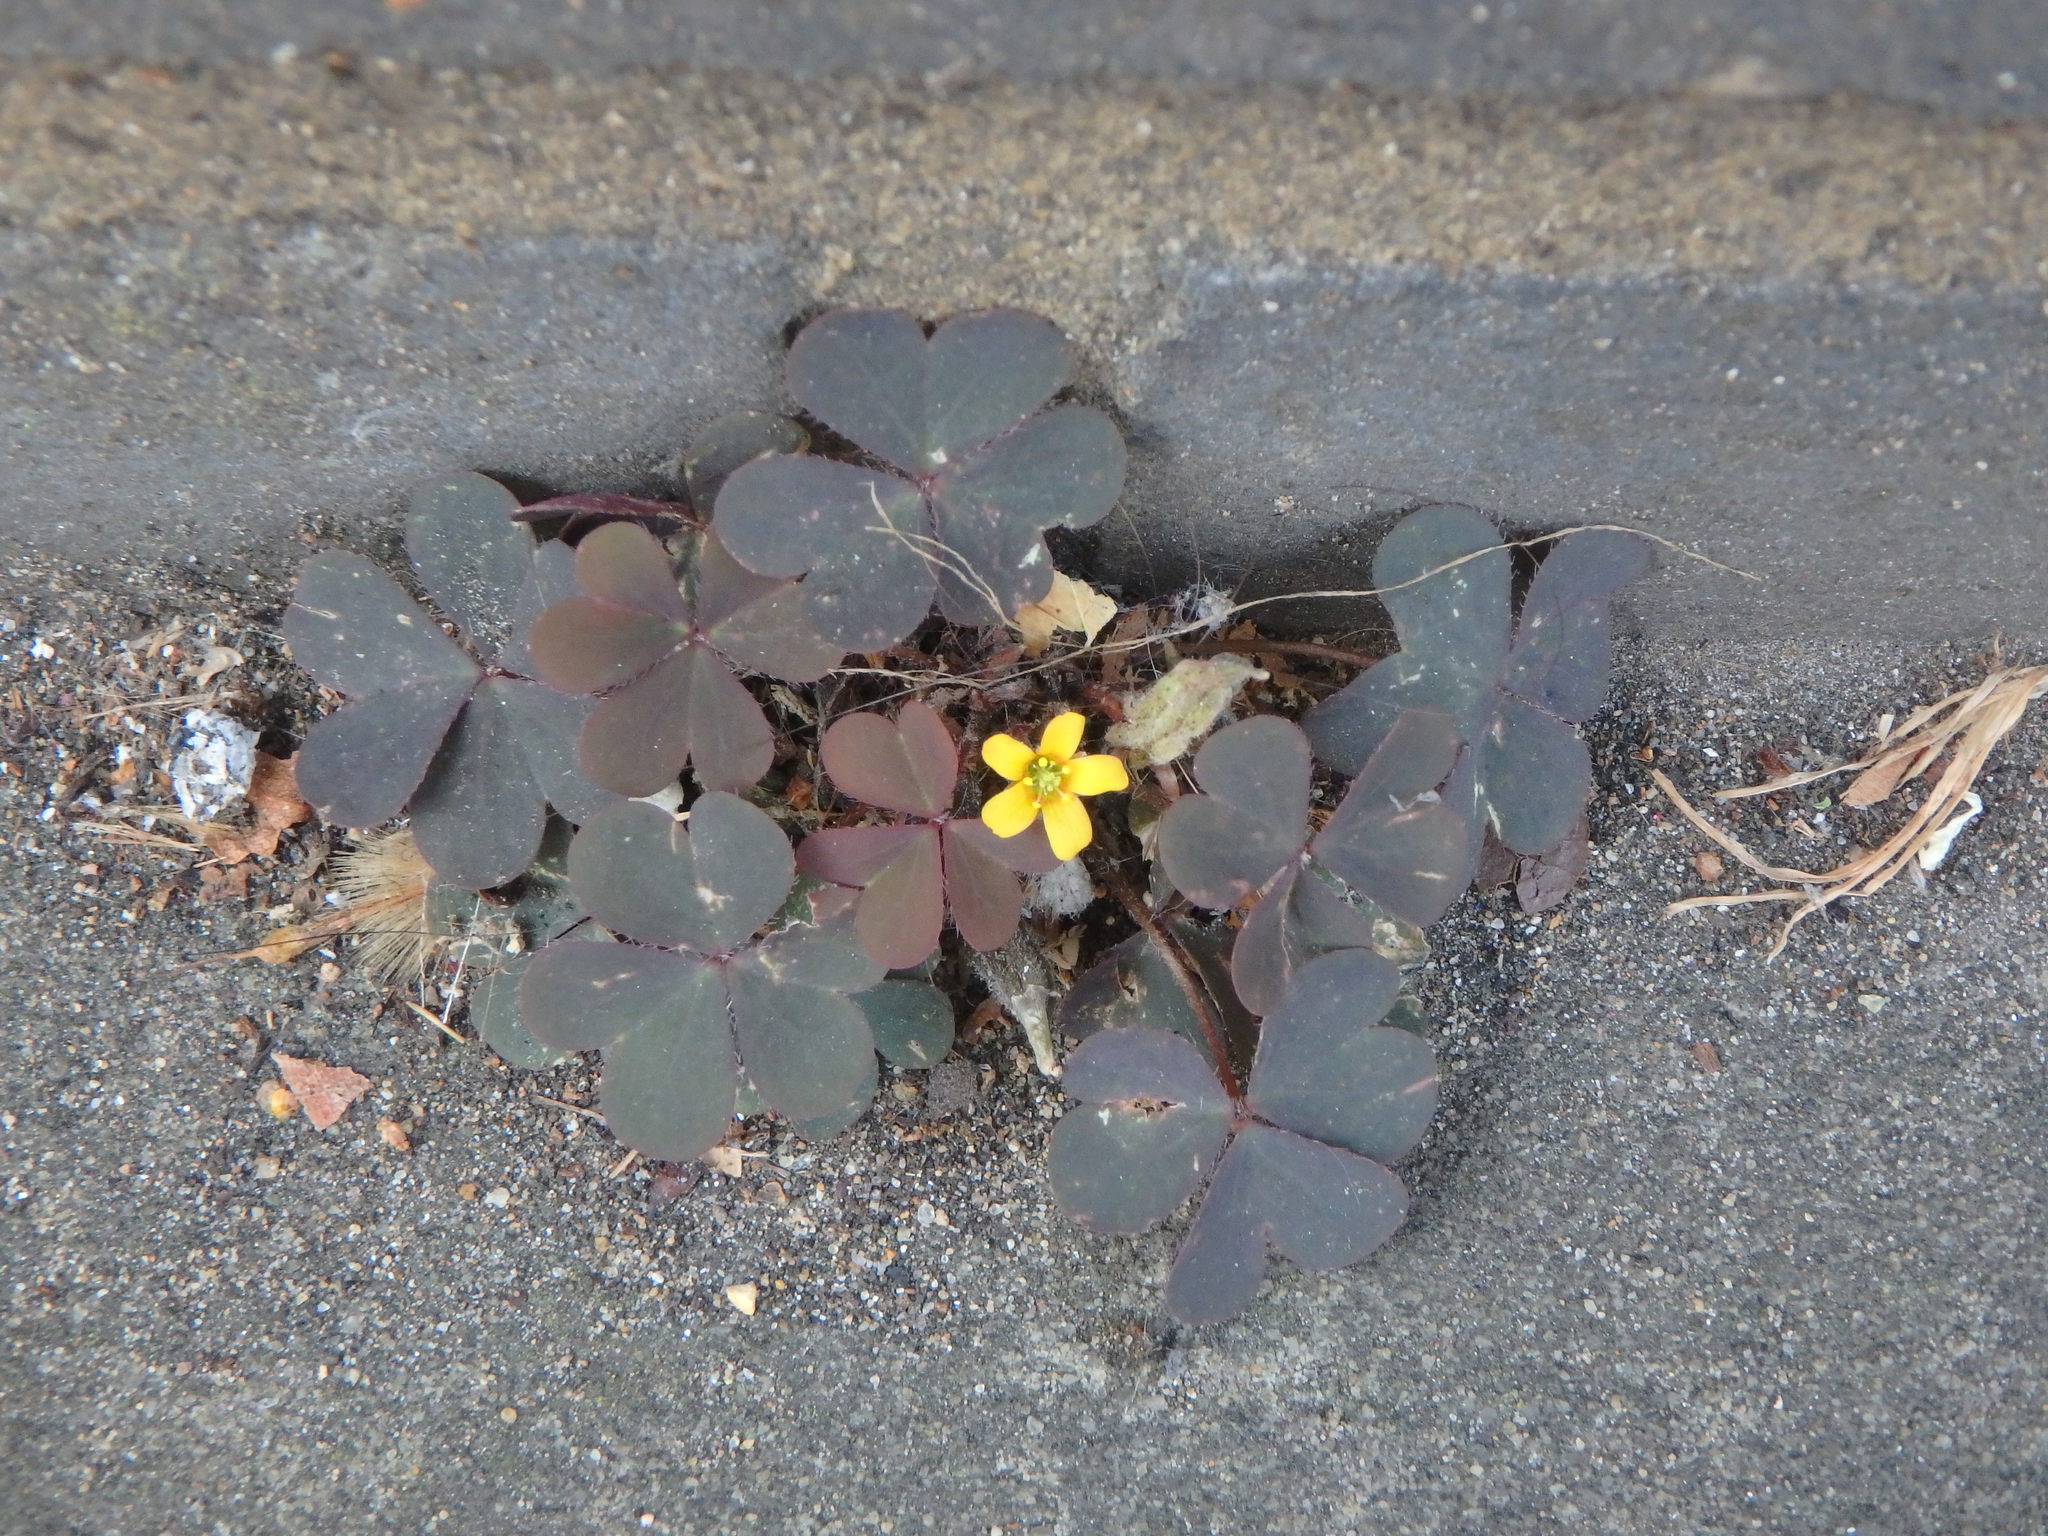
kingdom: Plantae
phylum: Tracheophyta
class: Magnoliopsida
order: Oxalidales
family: Oxalidaceae
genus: Oxalis
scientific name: Oxalis corniculata
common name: Procumbent yellow-sorrel
